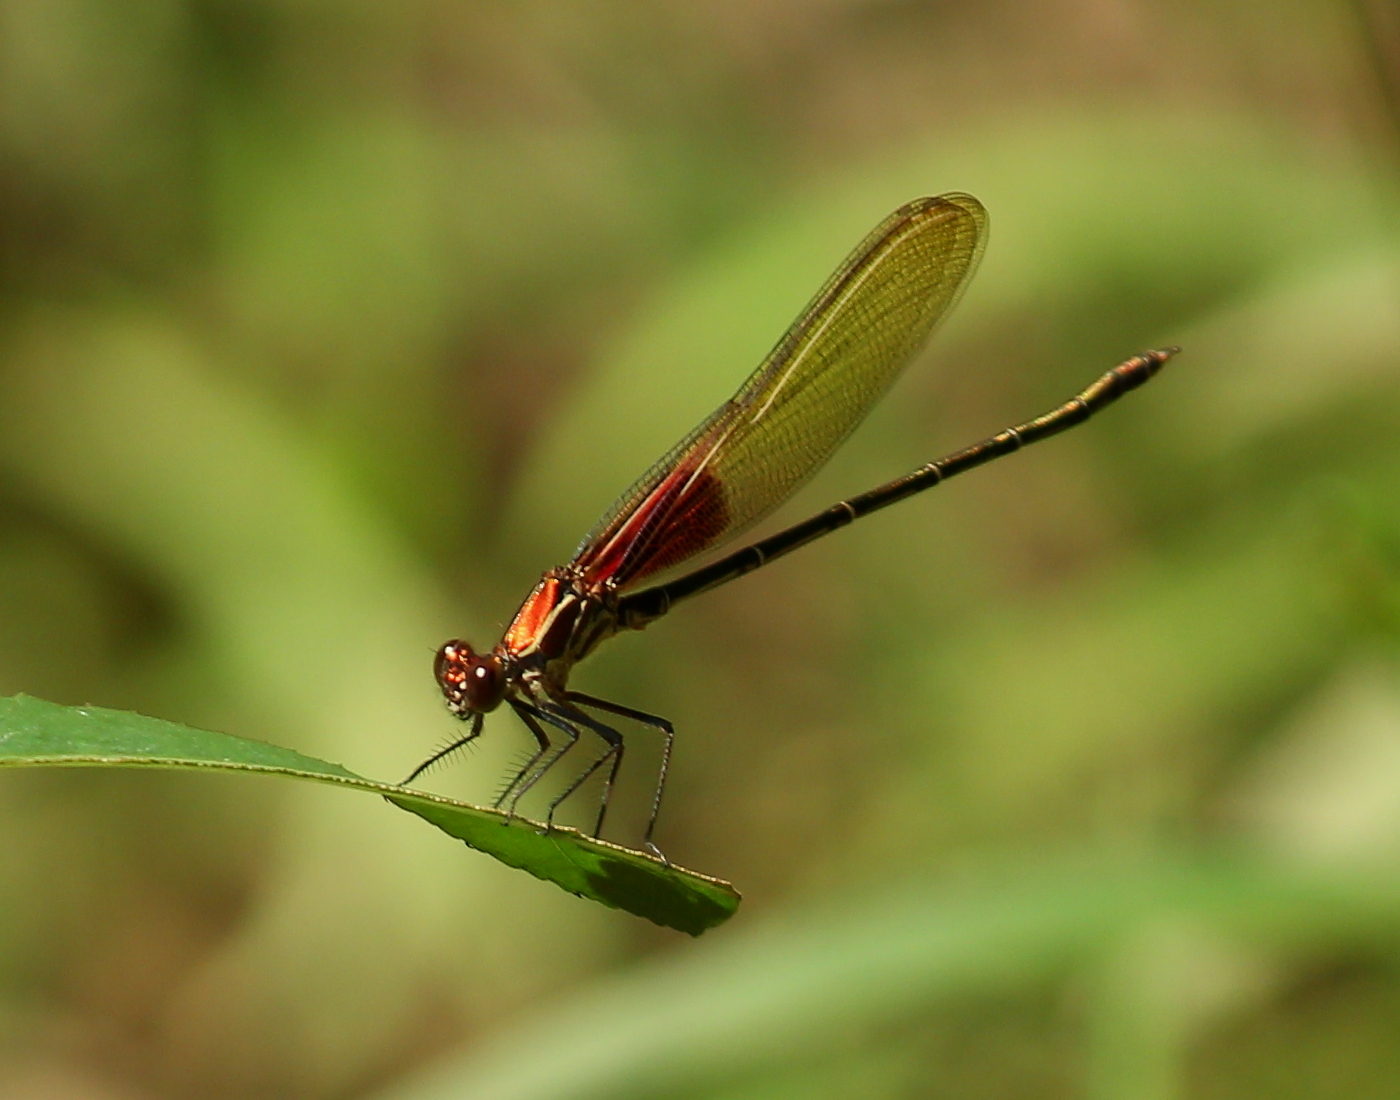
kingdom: Animalia
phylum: Arthropoda
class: Insecta
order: Odonata
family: Calopterygidae
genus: Hetaerina
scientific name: Hetaerina americana
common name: American rubyspot
